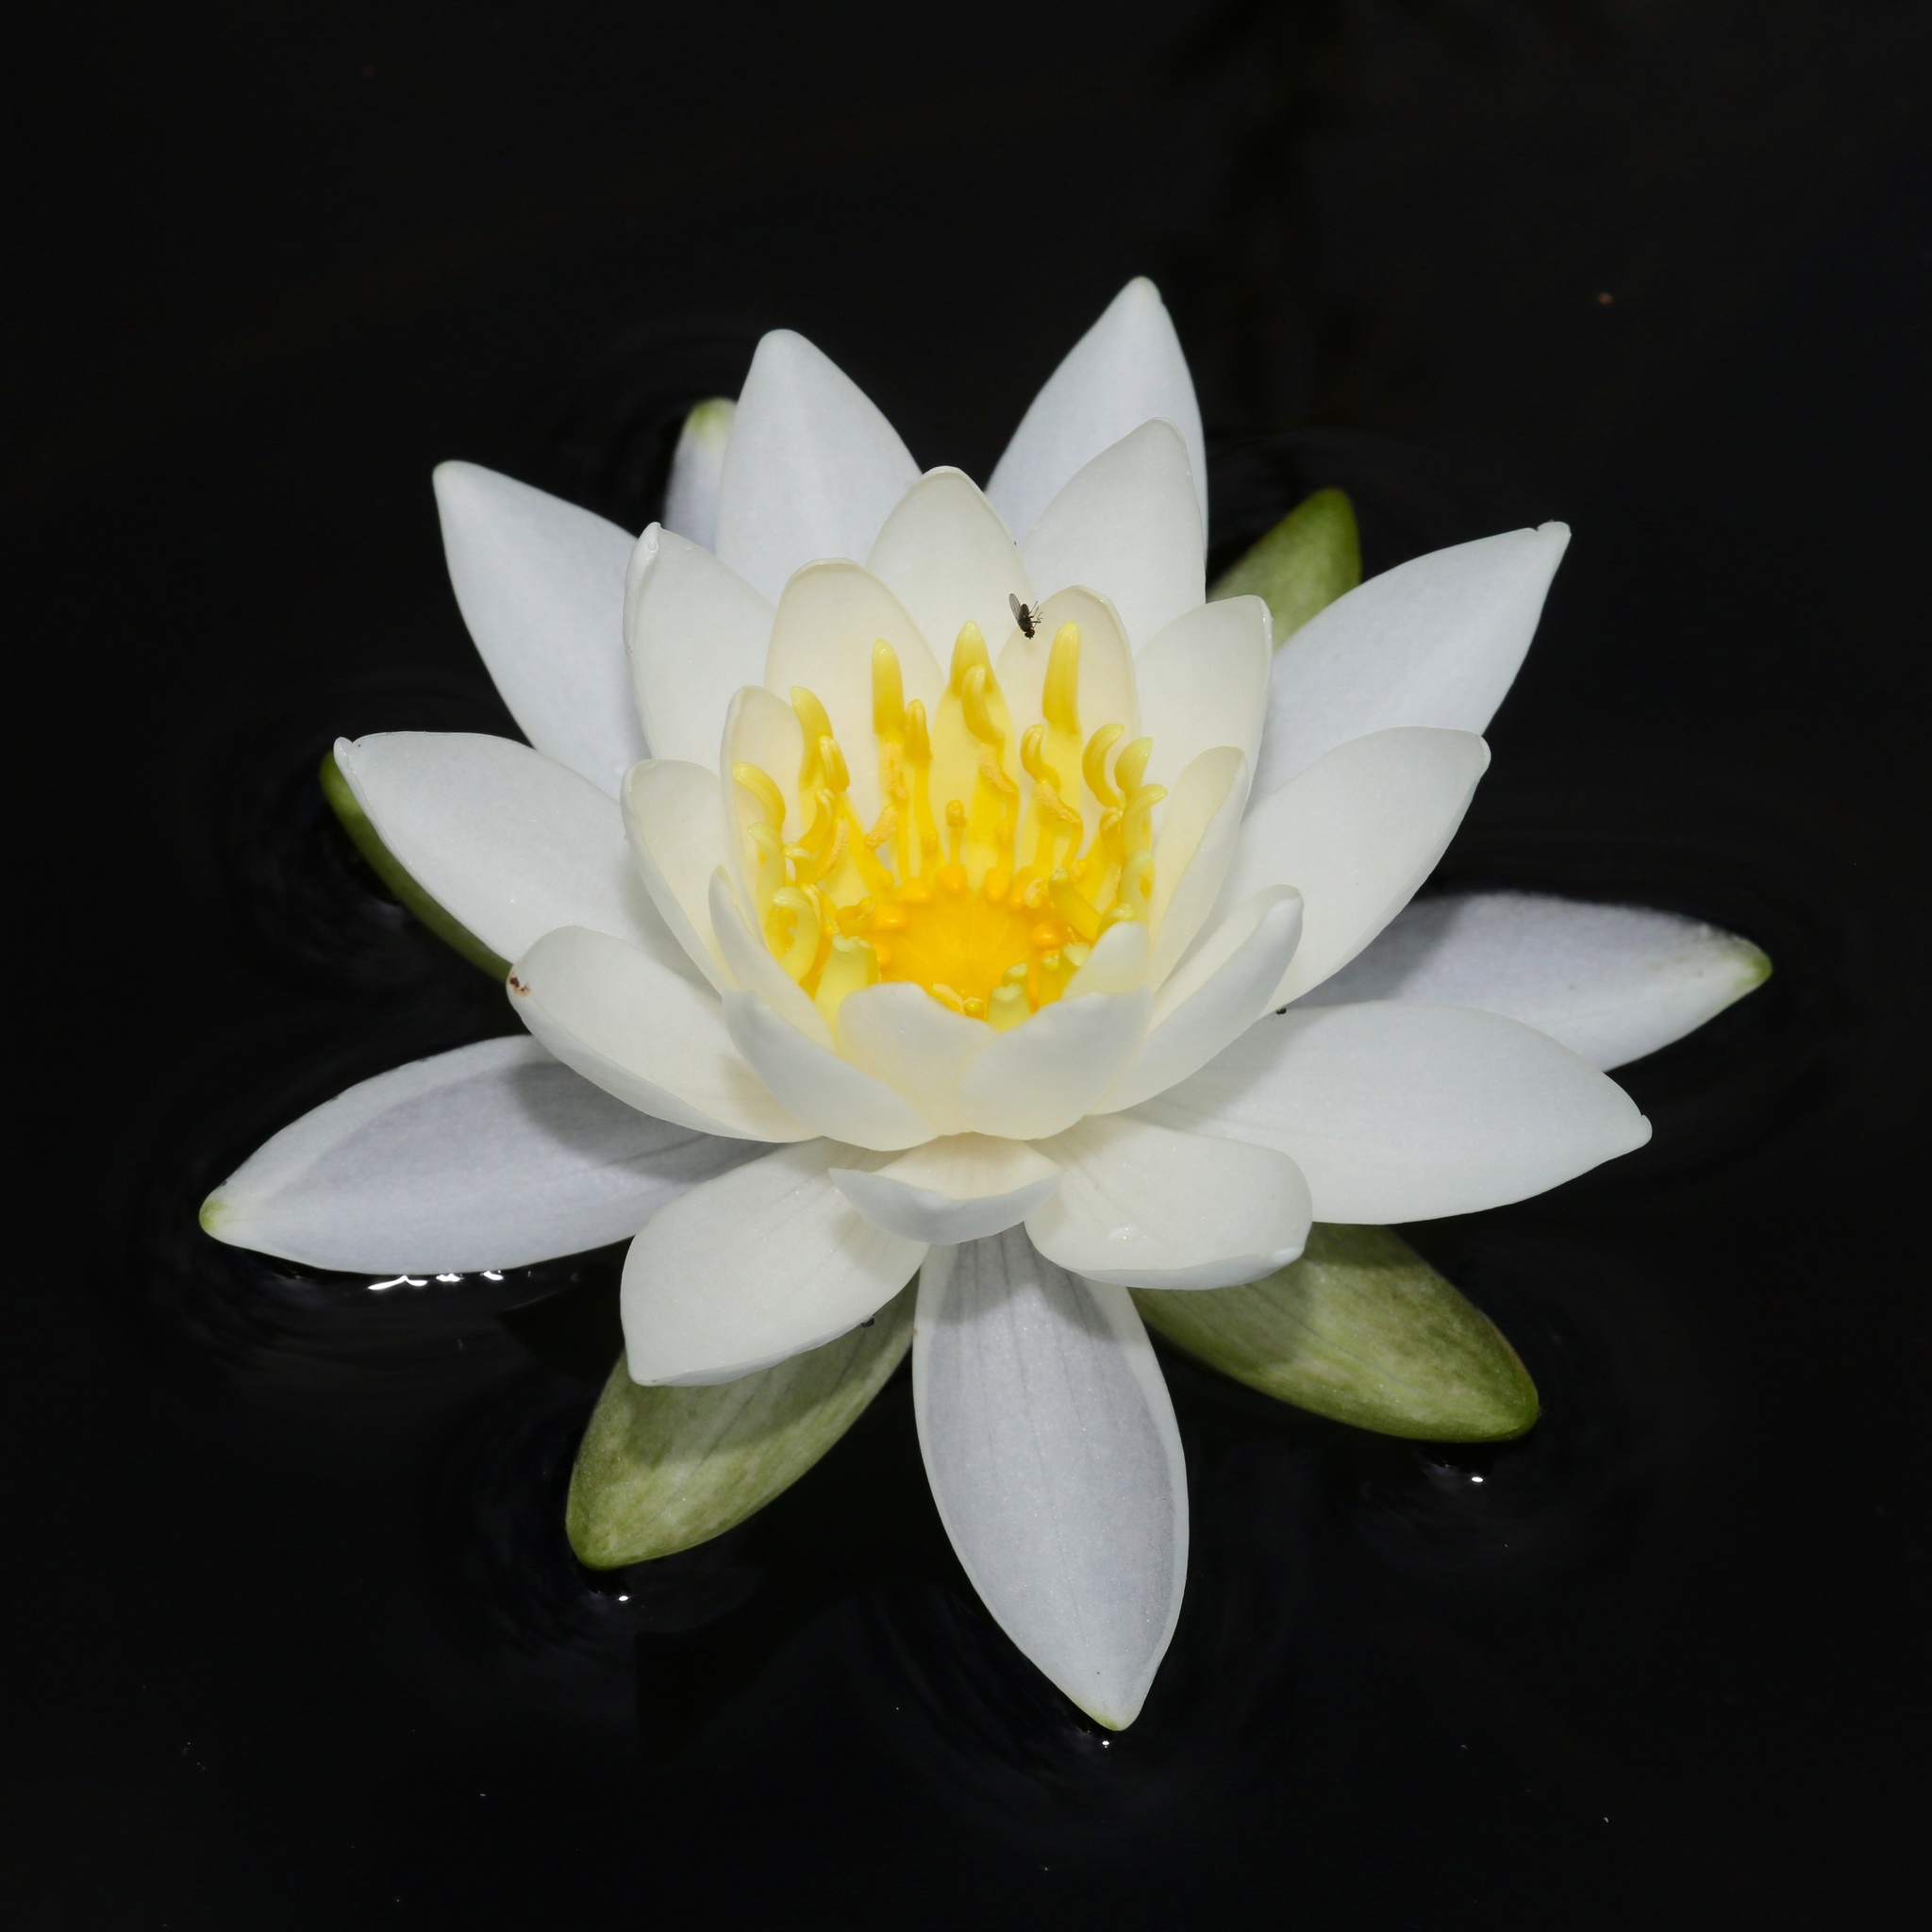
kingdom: Plantae
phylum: Tracheophyta
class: Magnoliopsida
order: Nymphaeales
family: Nymphaeaceae
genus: Nymphaea
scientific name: Nymphaea odorata
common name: Fragrant water-lily
